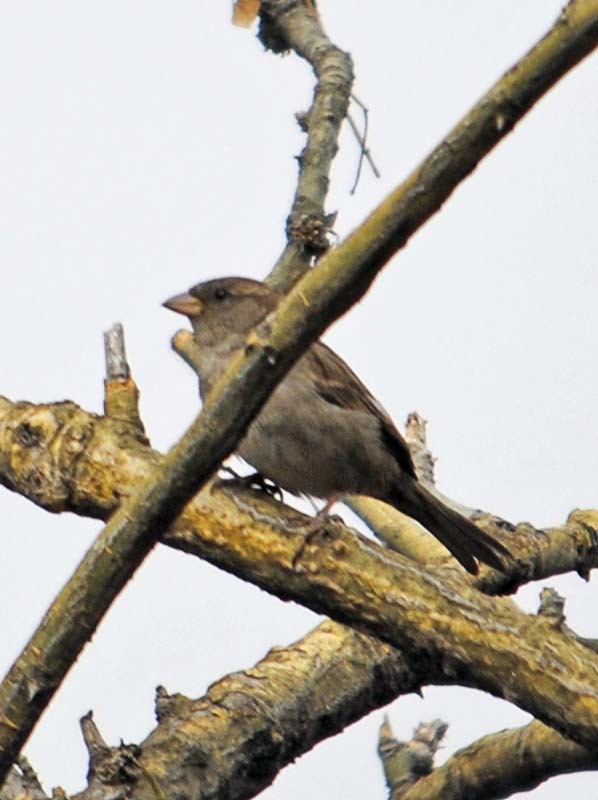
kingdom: Animalia
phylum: Chordata
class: Aves
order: Passeriformes
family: Passeridae
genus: Passer
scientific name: Passer domesticus
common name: House sparrow
